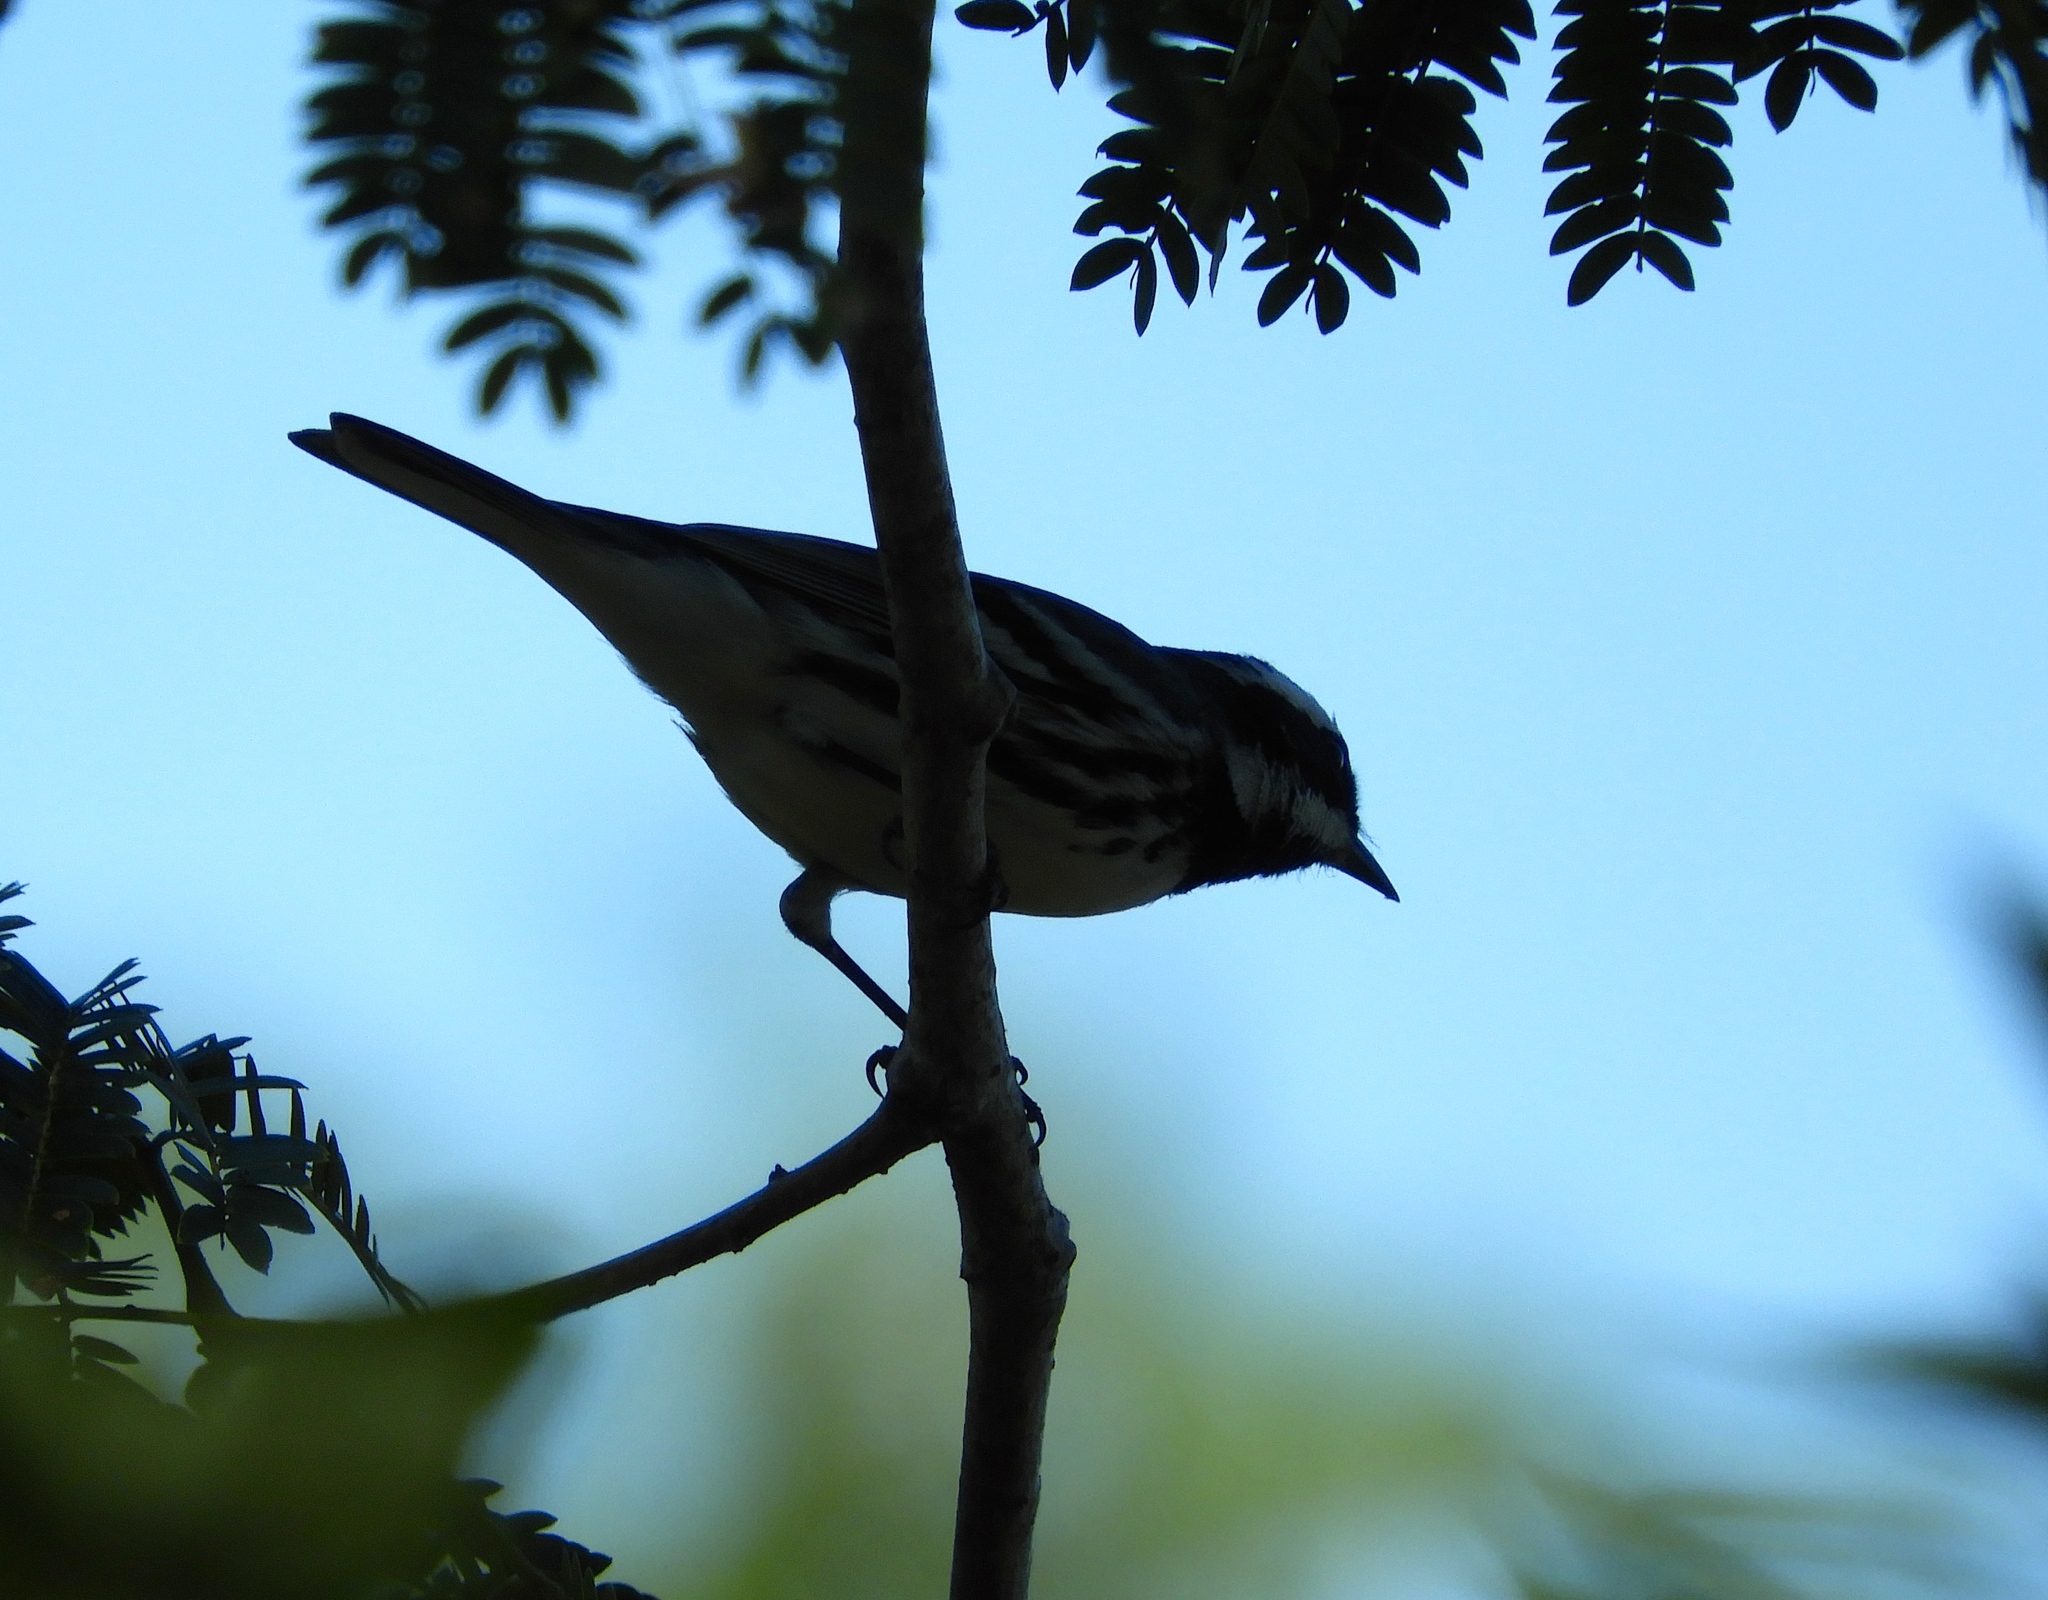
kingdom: Animalia
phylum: Chordata
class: Aves
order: Passeriformes
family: Parulidae
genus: Setophaga
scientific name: Setophaga nigrescens
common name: Black-throated gray warbler
